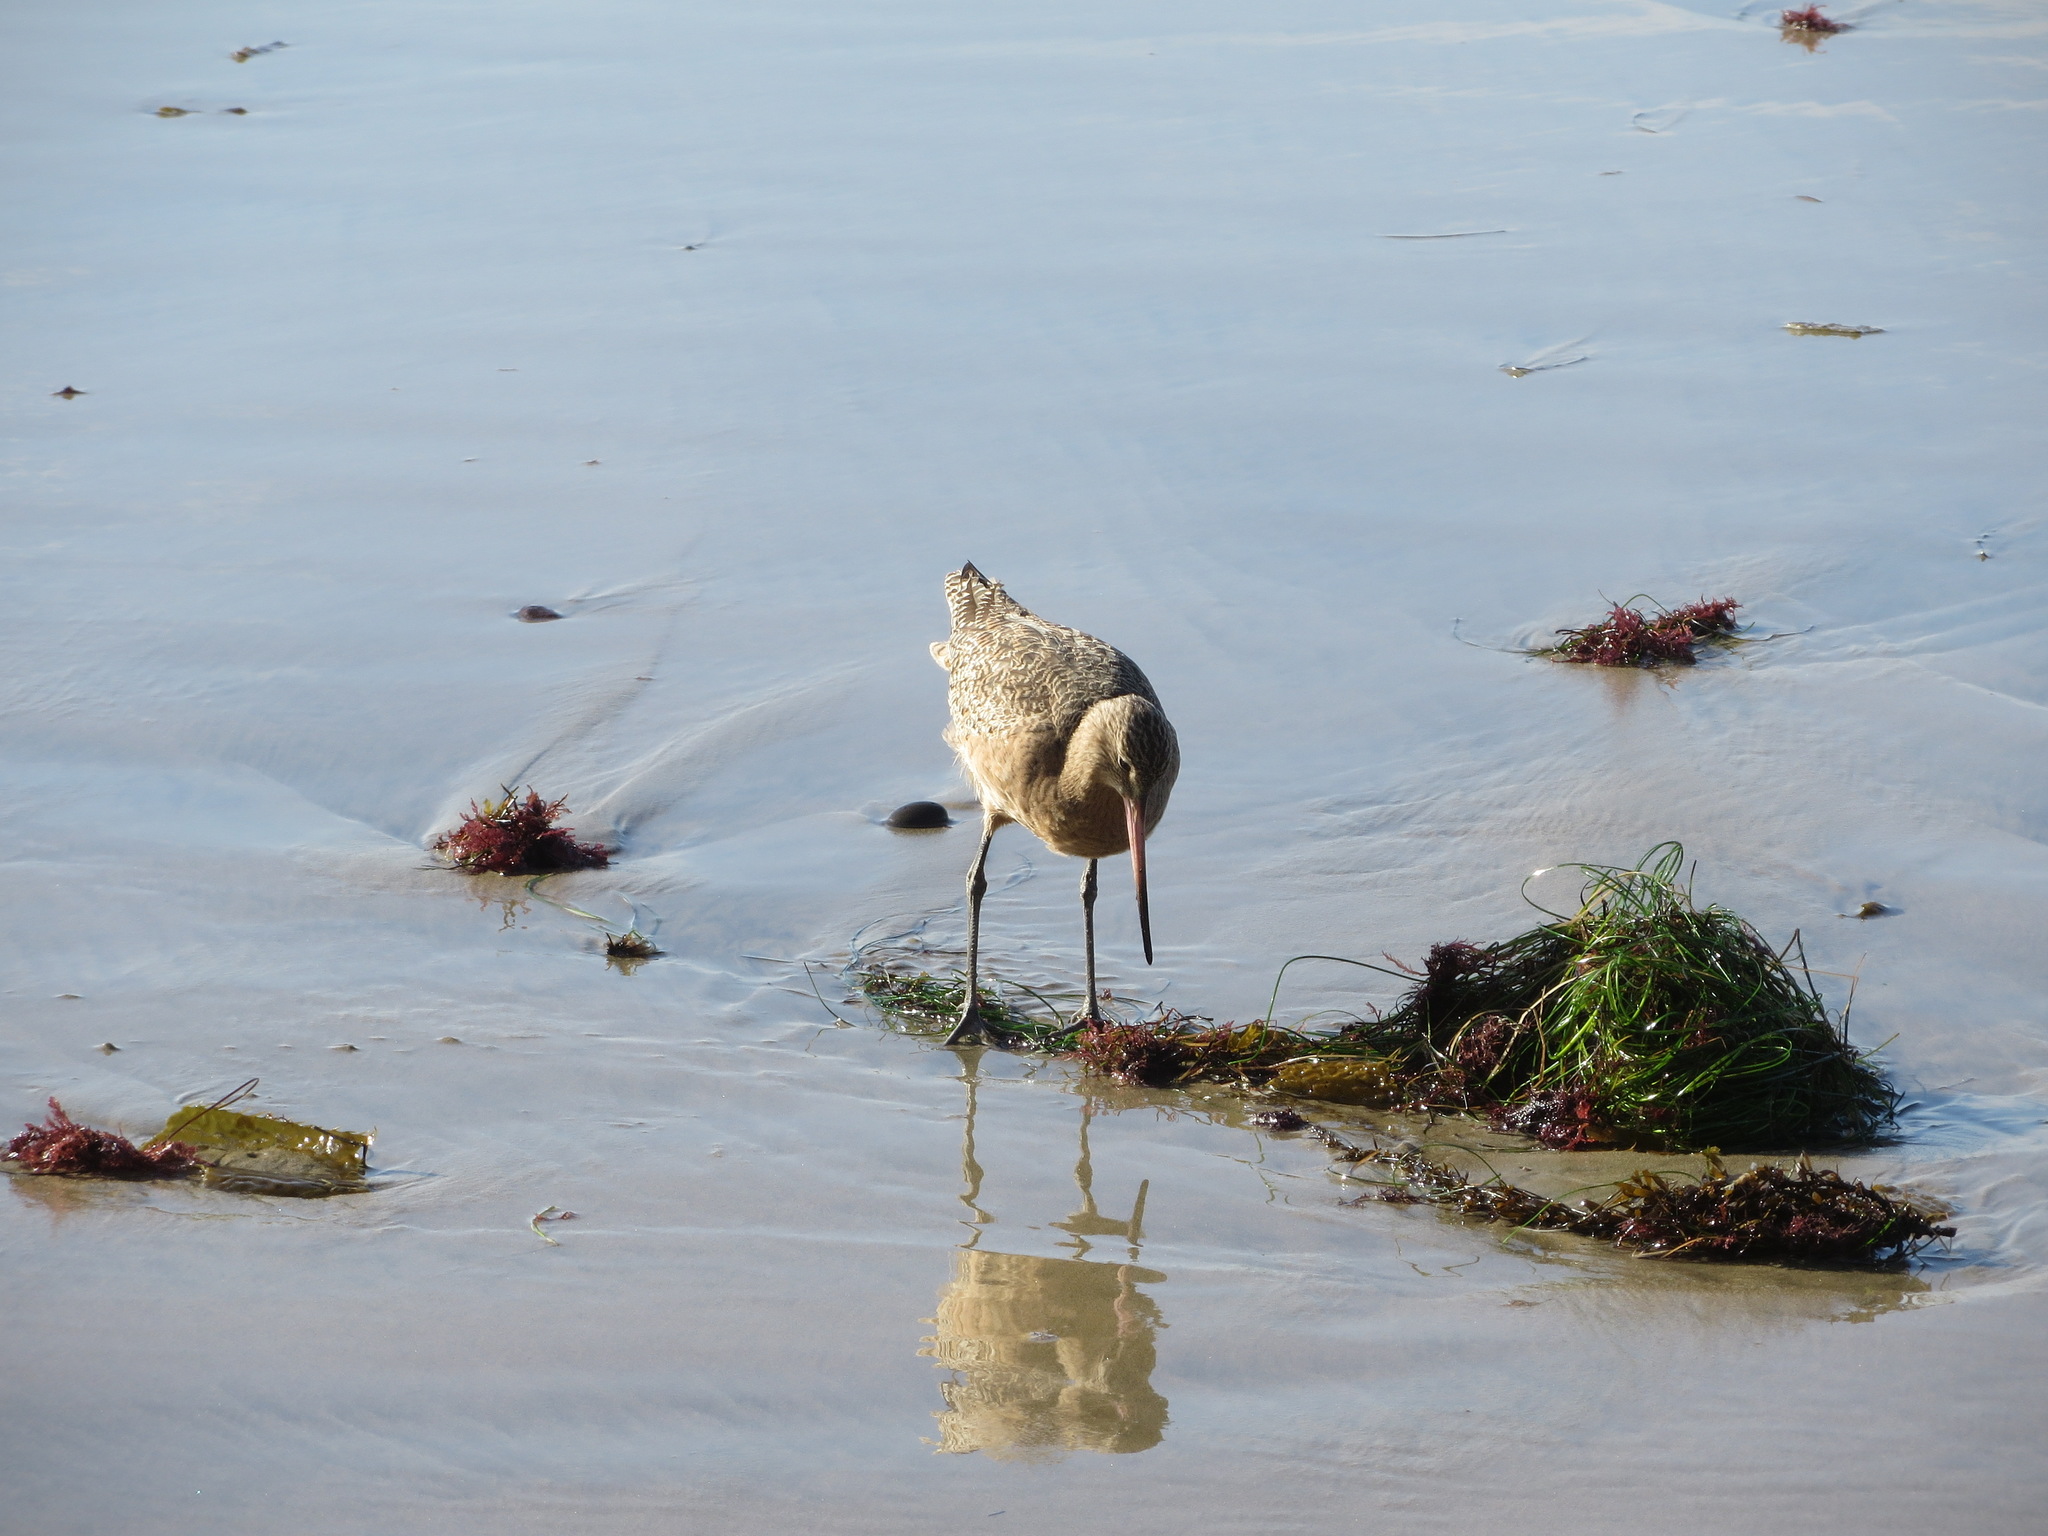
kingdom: Animalia
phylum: Chordata
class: Aves
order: Charadriiformes
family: Scolopacidae
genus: Limosa
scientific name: Limosa fedoa
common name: Marbled godwit
